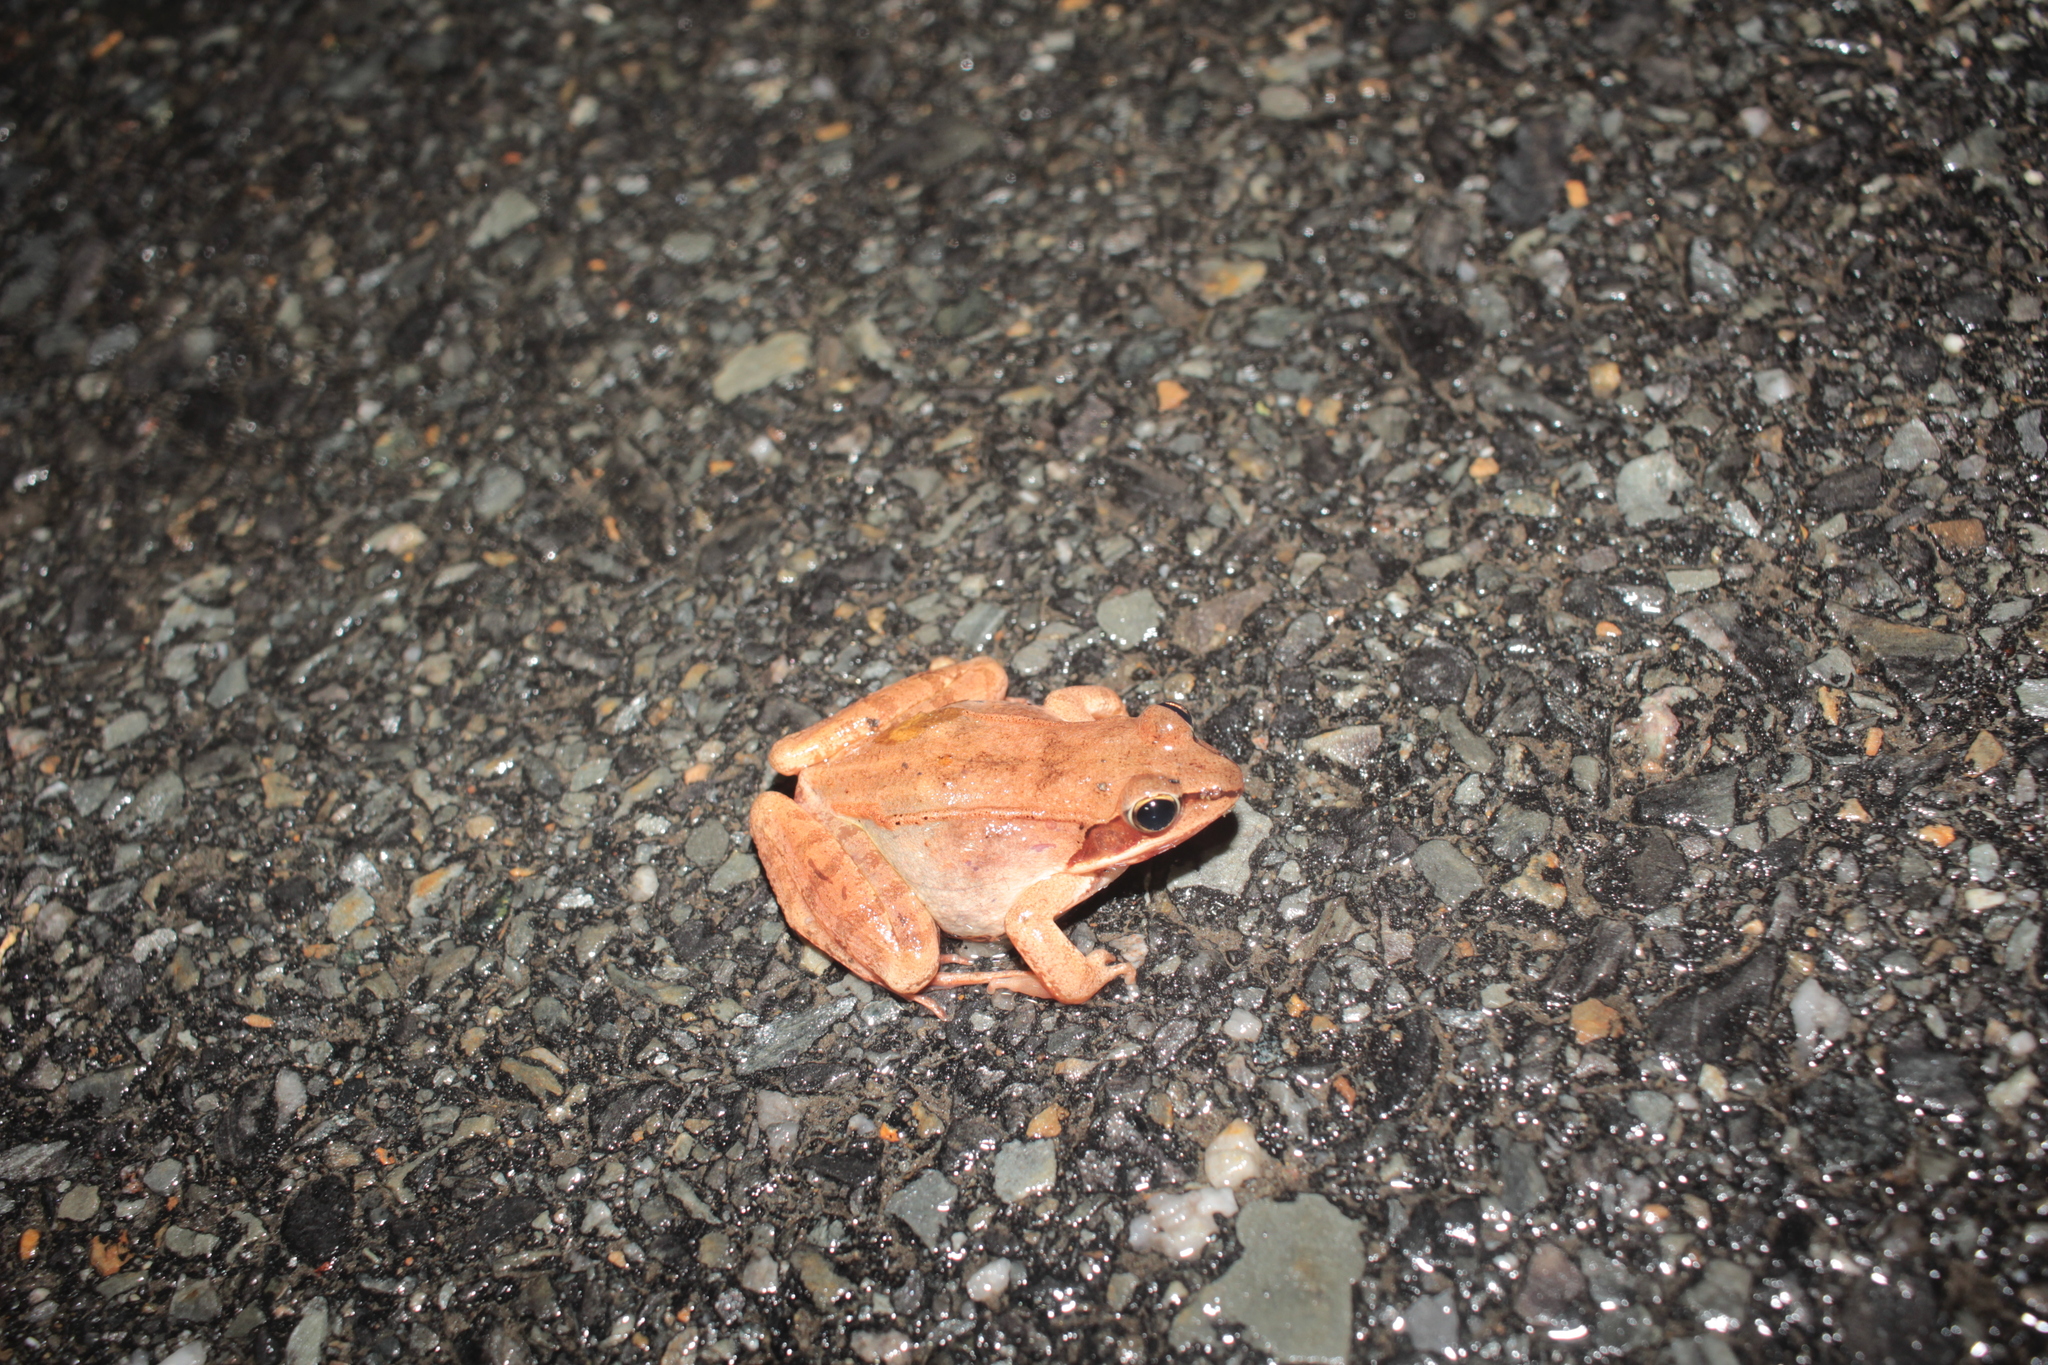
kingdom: Animalia
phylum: Chordata
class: Amphibia
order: Anura
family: Ranidae
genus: Lithobates
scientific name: Lithobates sylvaticus
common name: Wood frog
